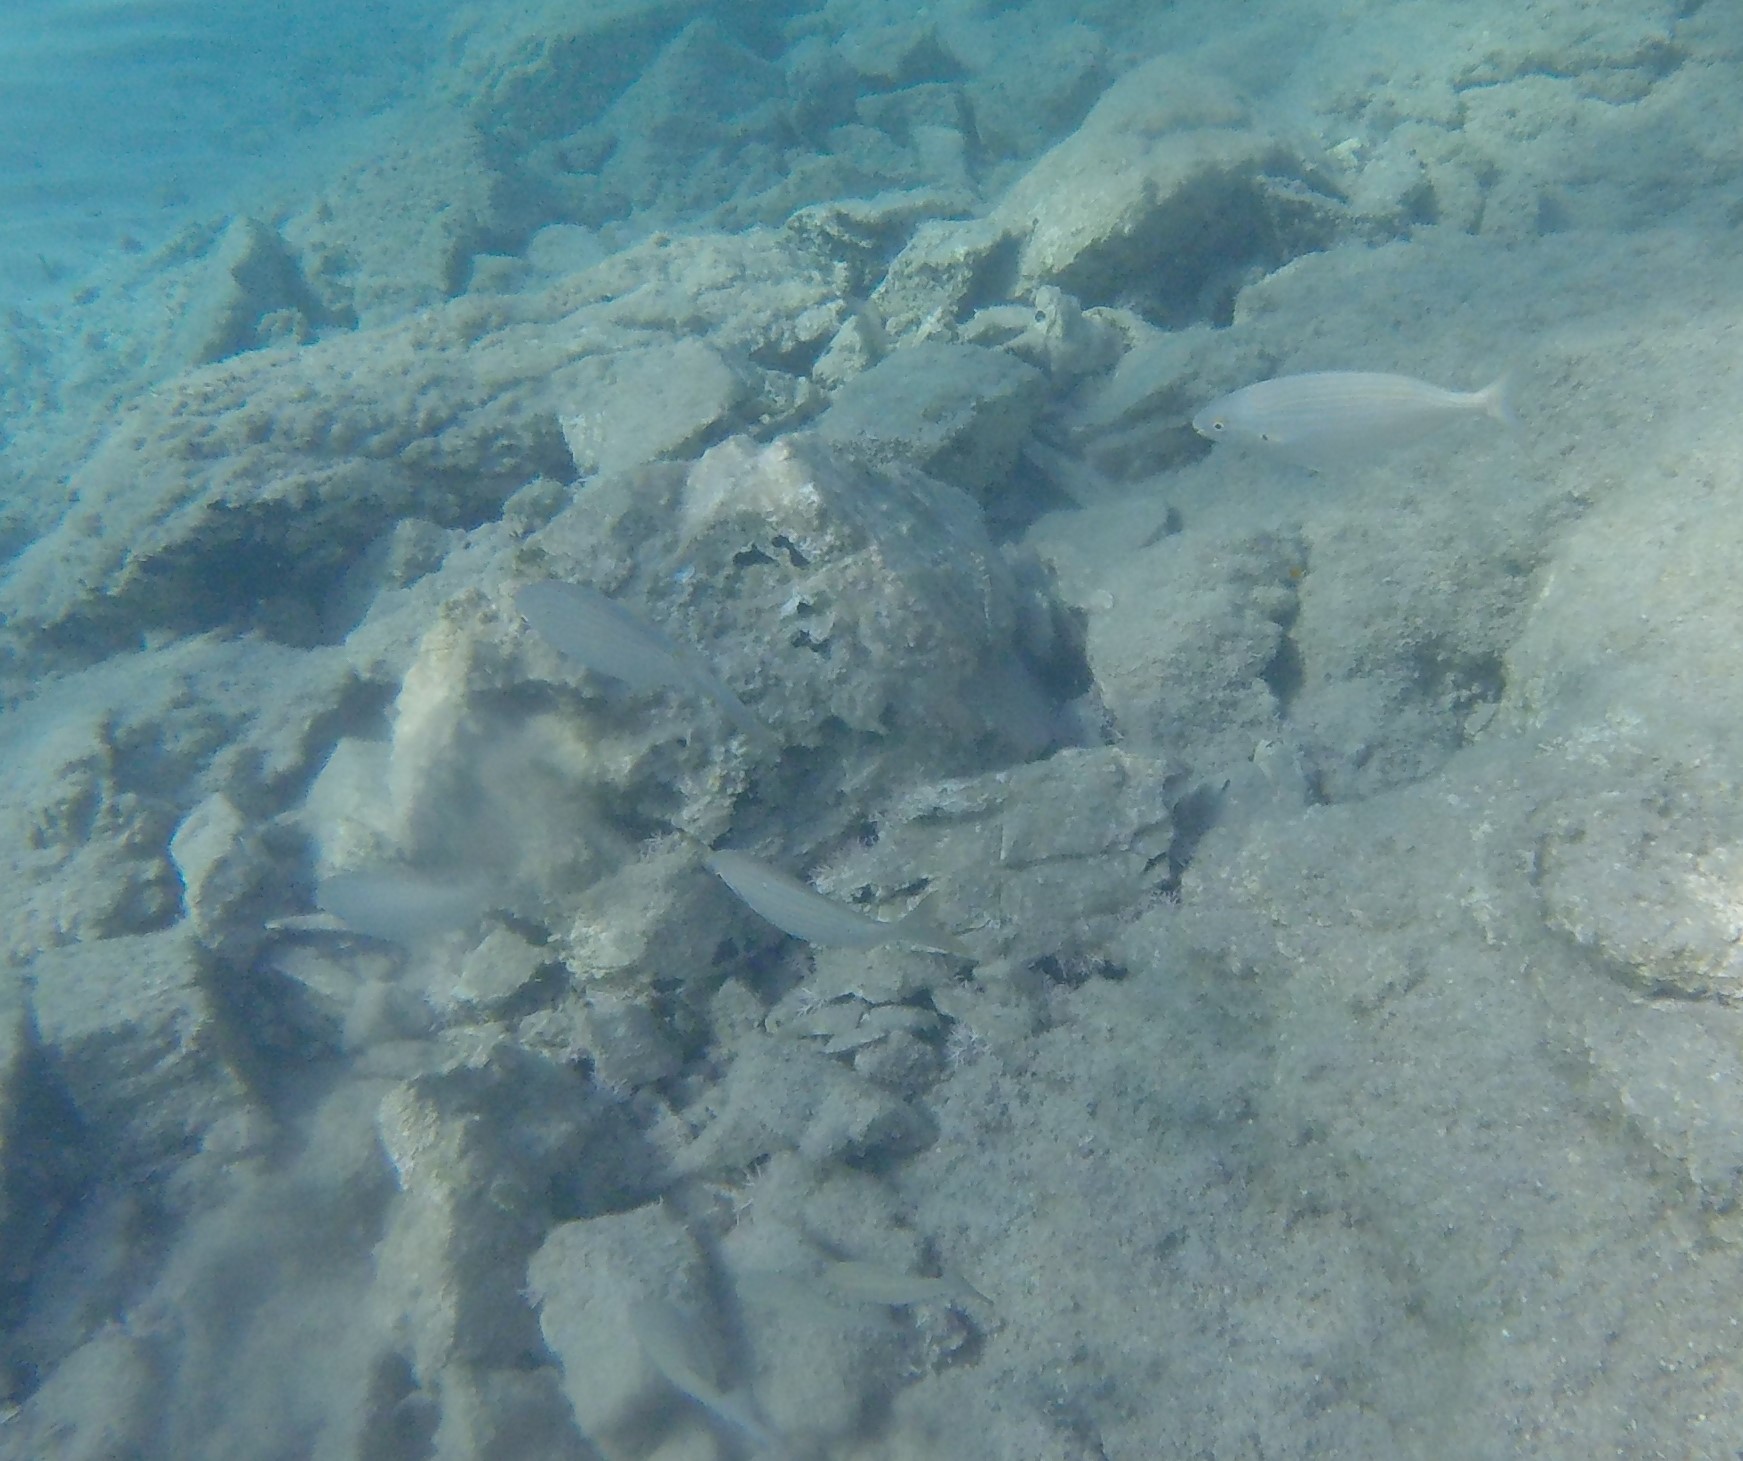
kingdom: Animalia
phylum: Chordata
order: Perciformes
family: Sparidae
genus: Sarpa
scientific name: Sarpa salpa
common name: Salema
